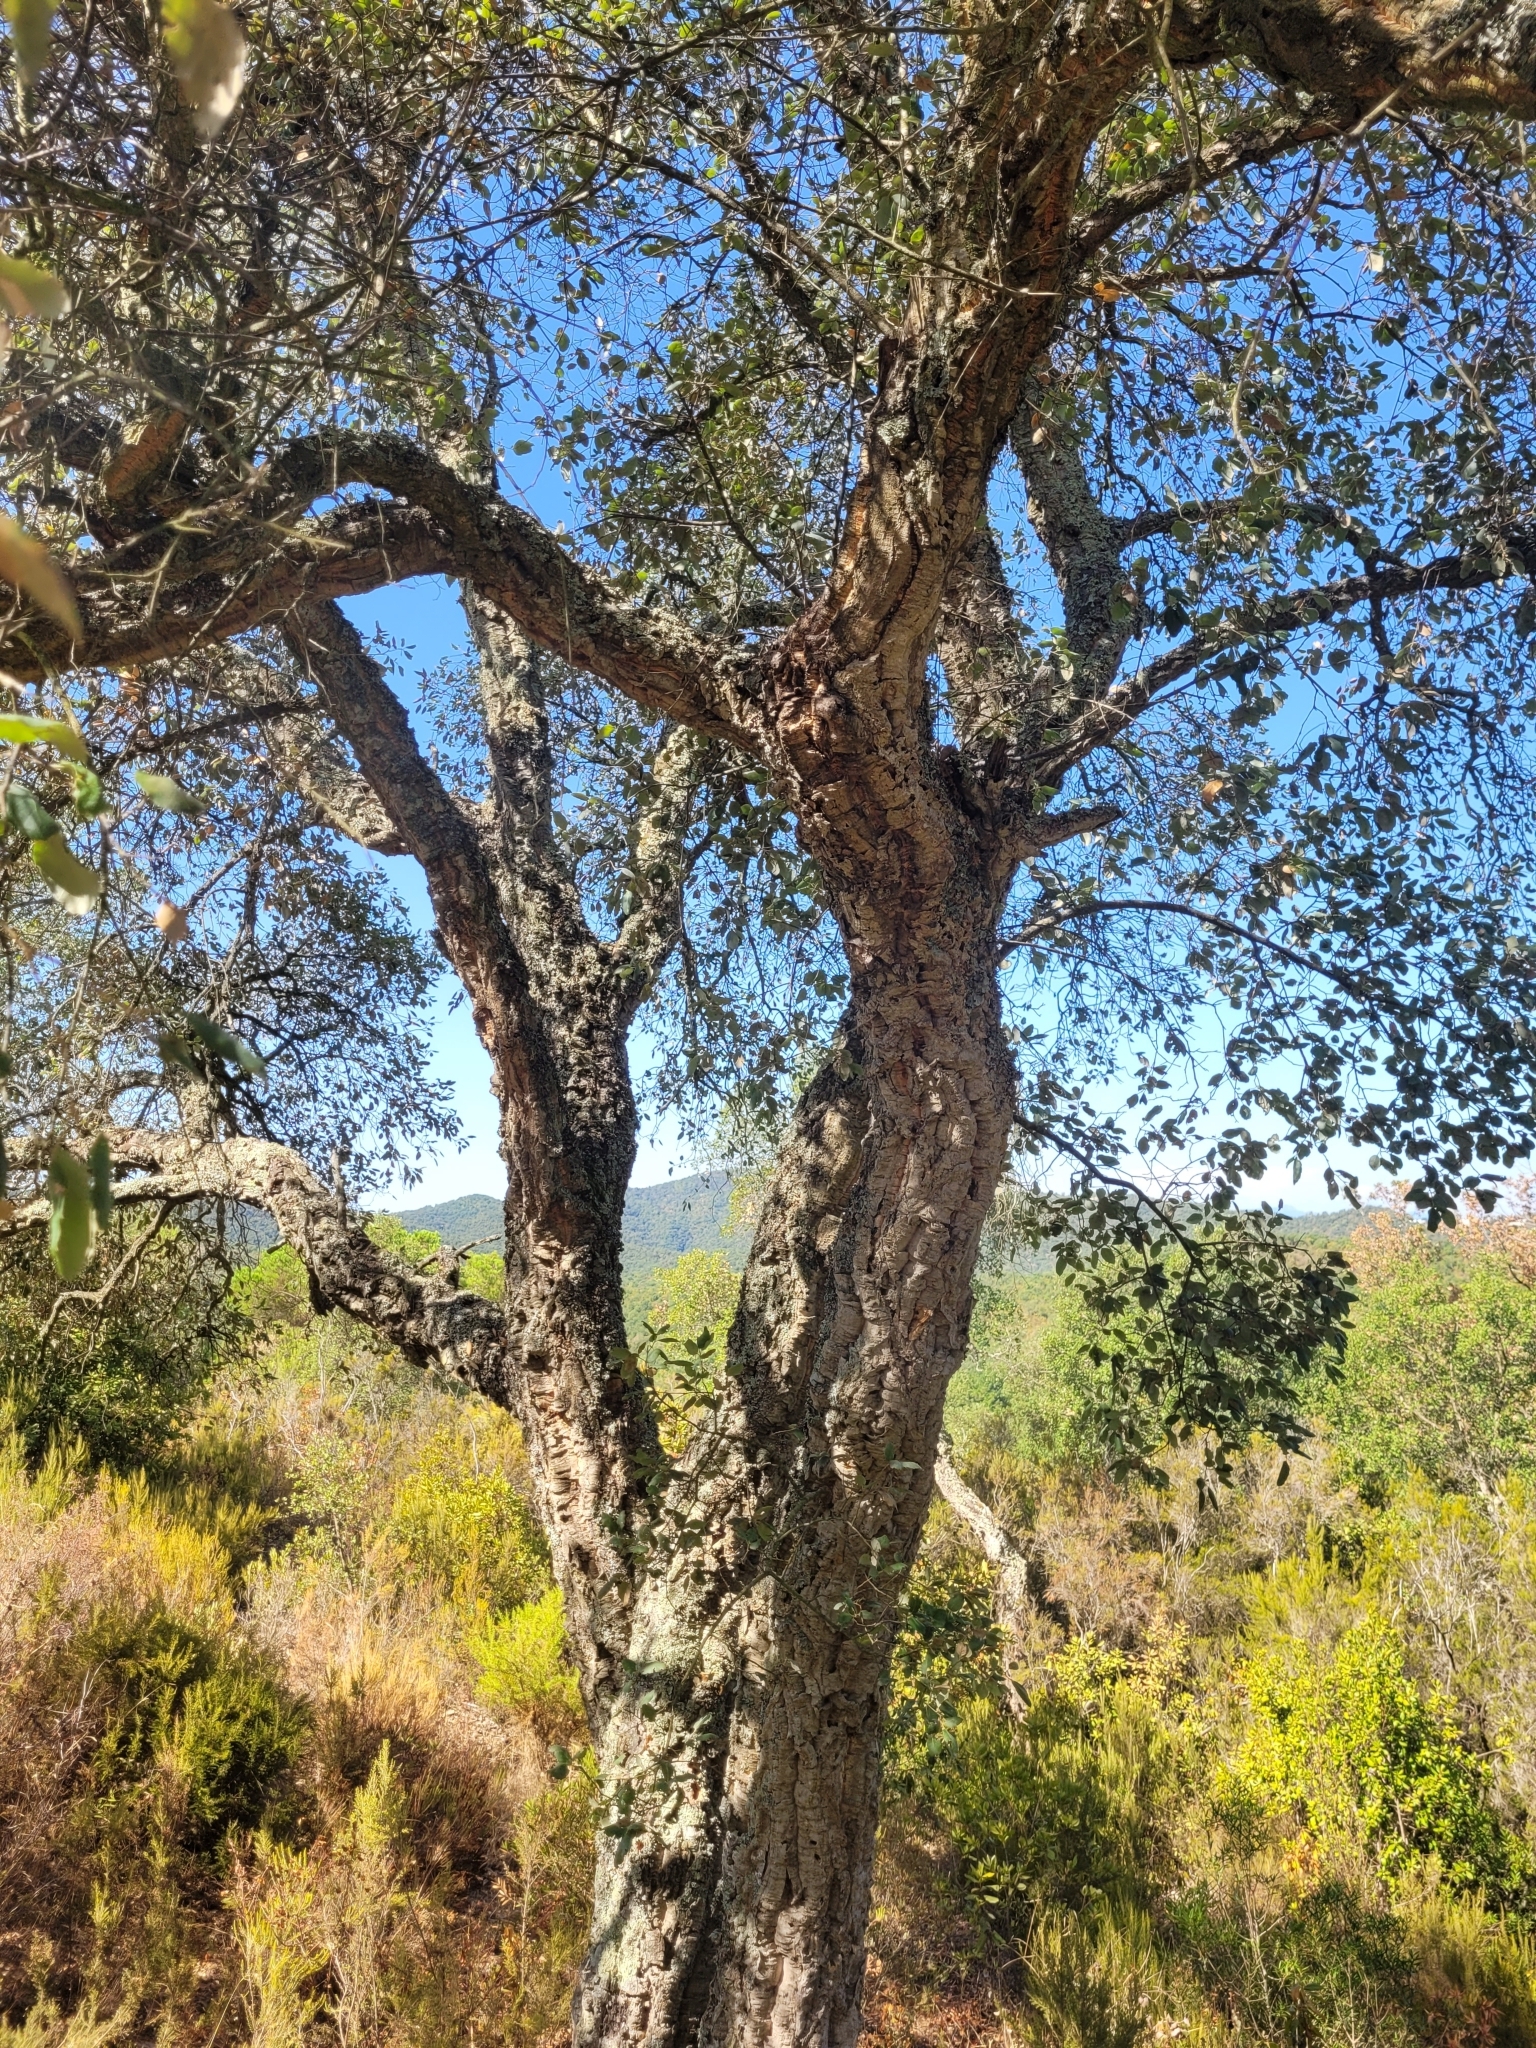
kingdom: Plantae
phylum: Tracheophyta
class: Magnoliopsida
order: Fagales
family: Fagaceae
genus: Quercus
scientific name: Quercus suber
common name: Cork oak
